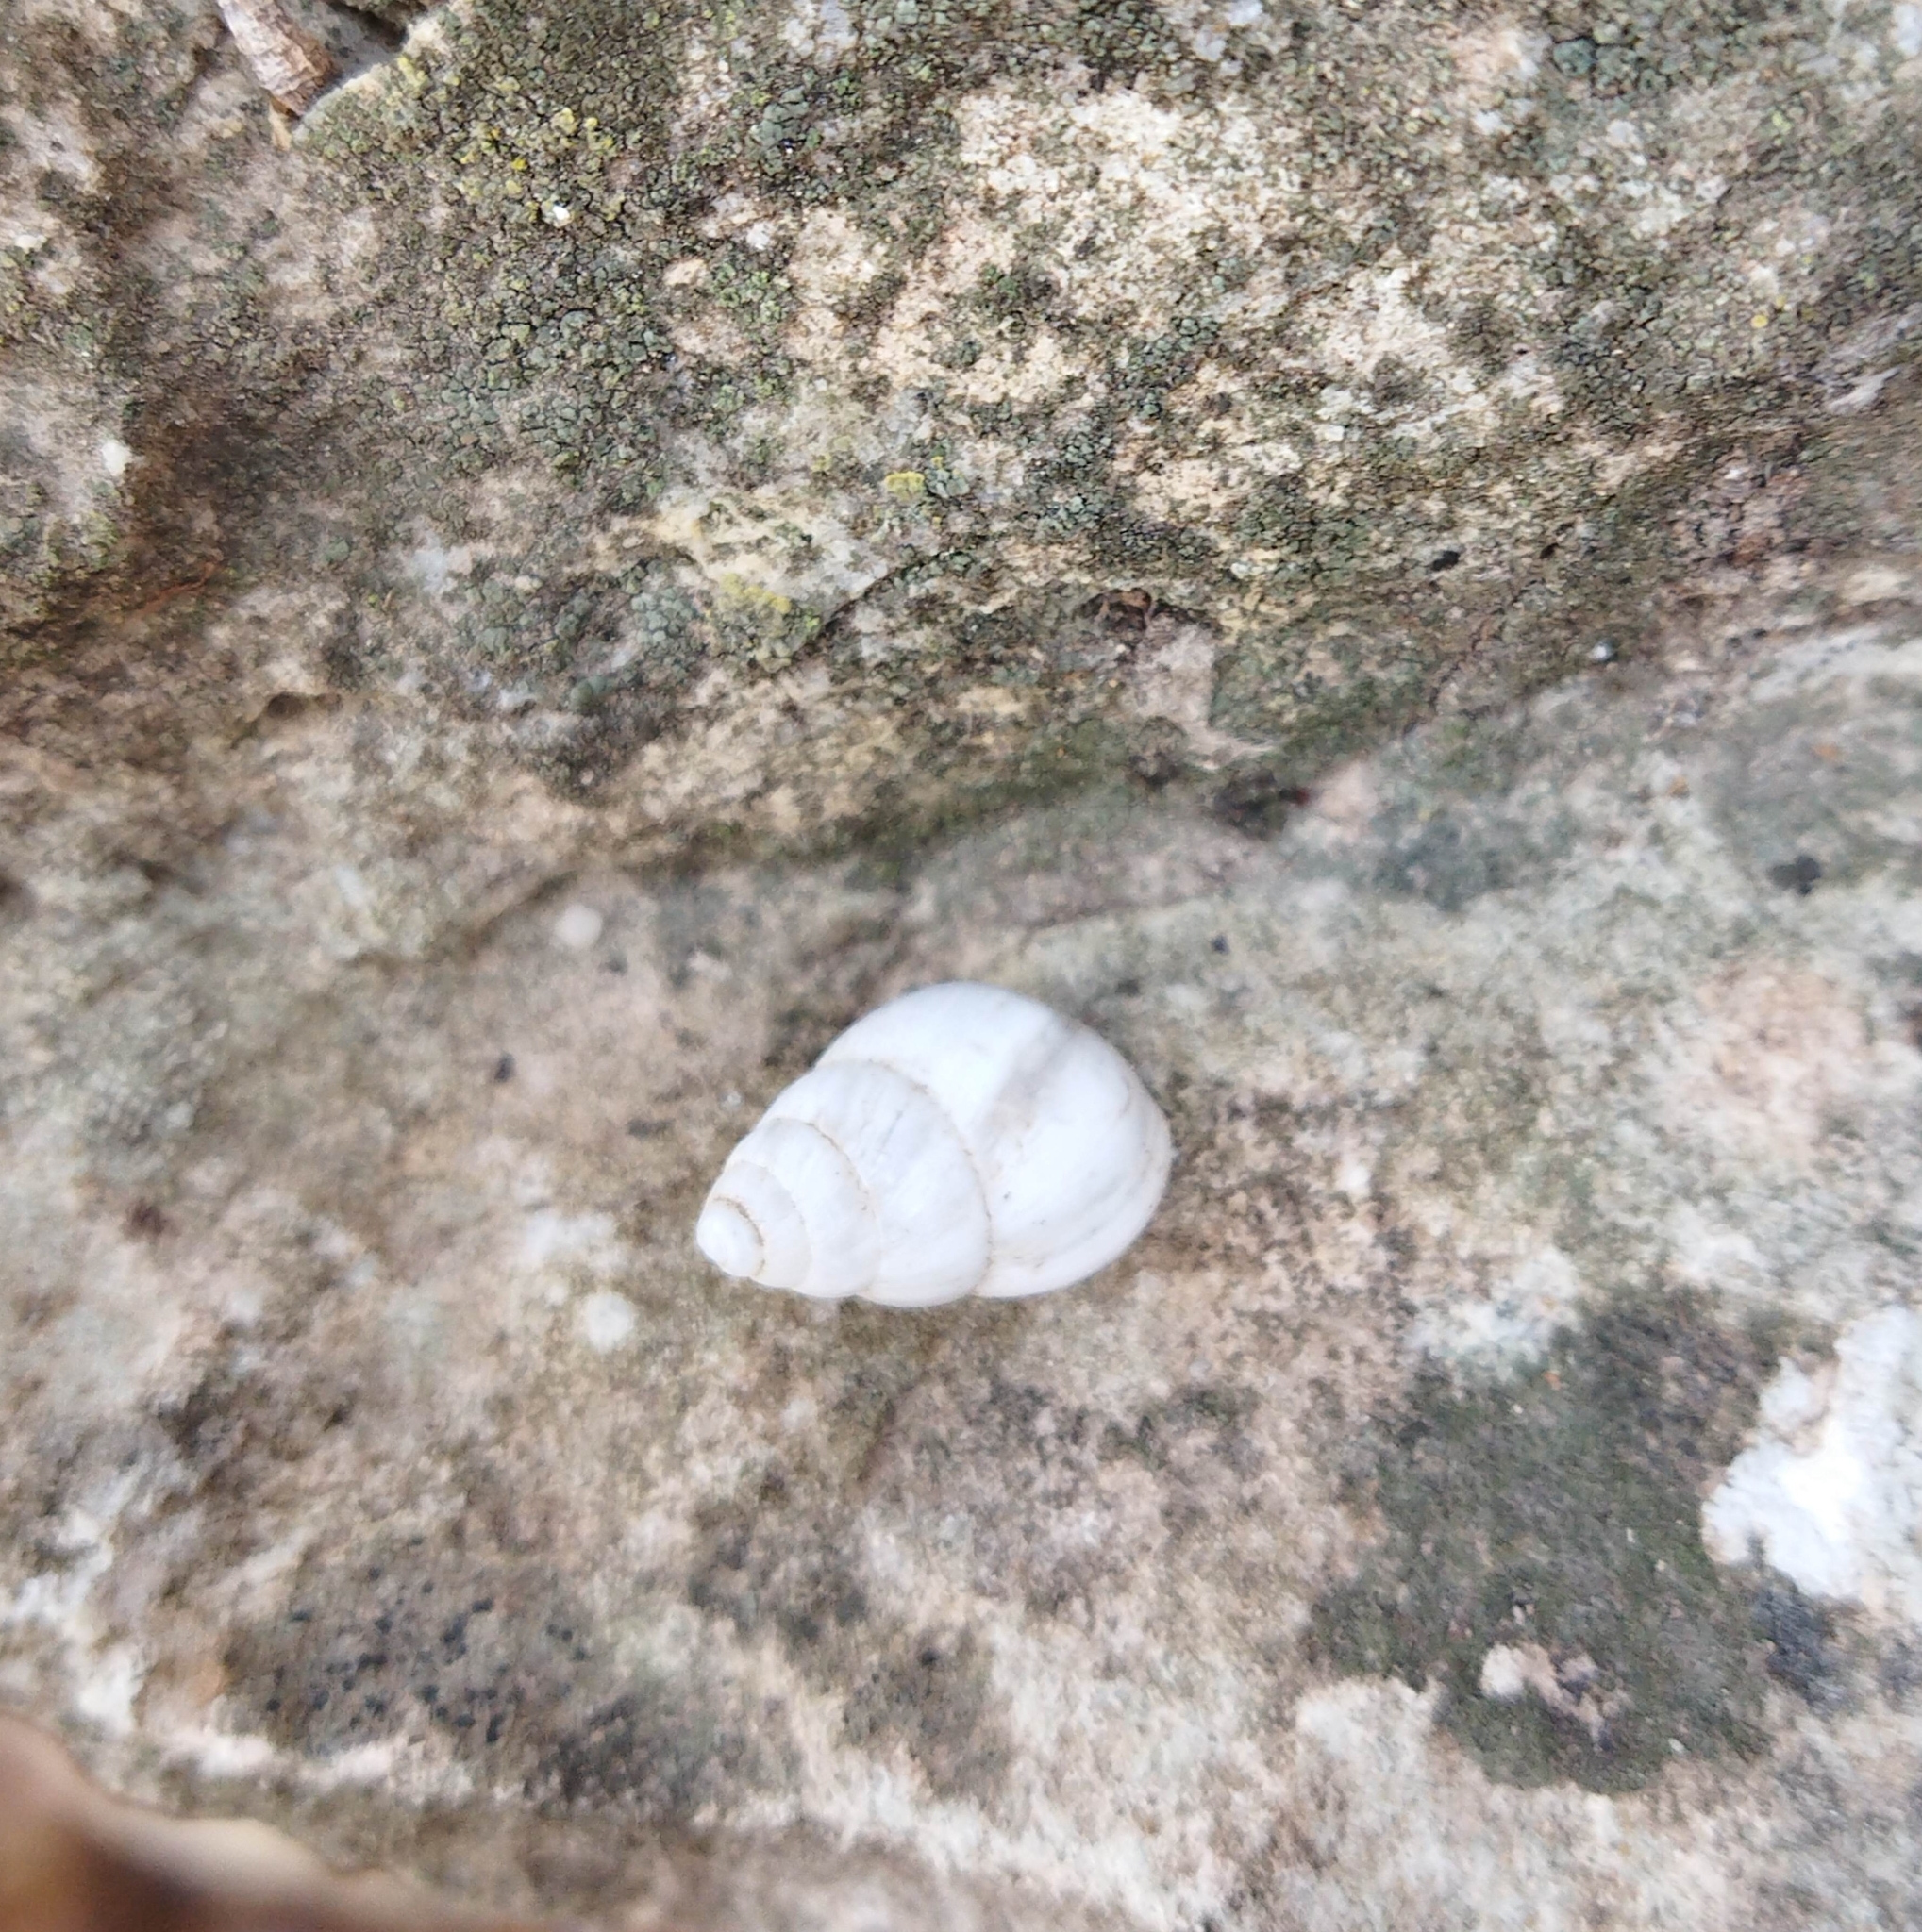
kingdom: Animalia
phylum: Mollusca
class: Gastropoda
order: Stylommatophora
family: Enidae
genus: Zebrina
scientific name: Zebrina detrita
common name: Large bulin
